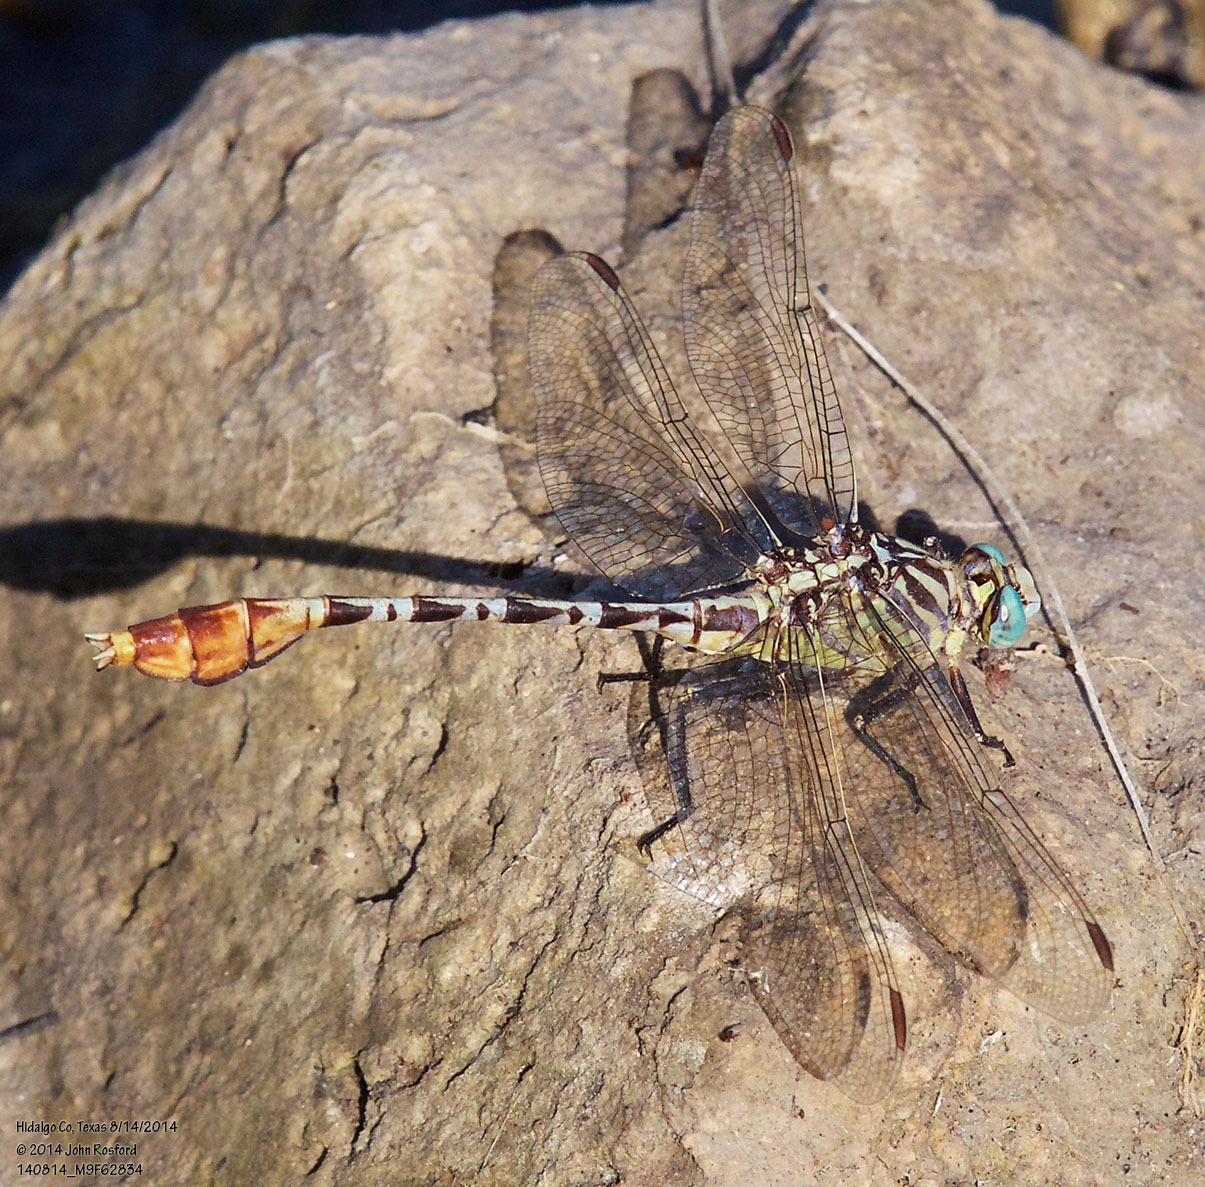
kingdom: Animalia
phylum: Arthropoda
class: Insecta
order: Odonata
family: Gomphidae
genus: Dromogomphus
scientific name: Dromogomphus spoliatus
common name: Flag-tailed spinyleg
